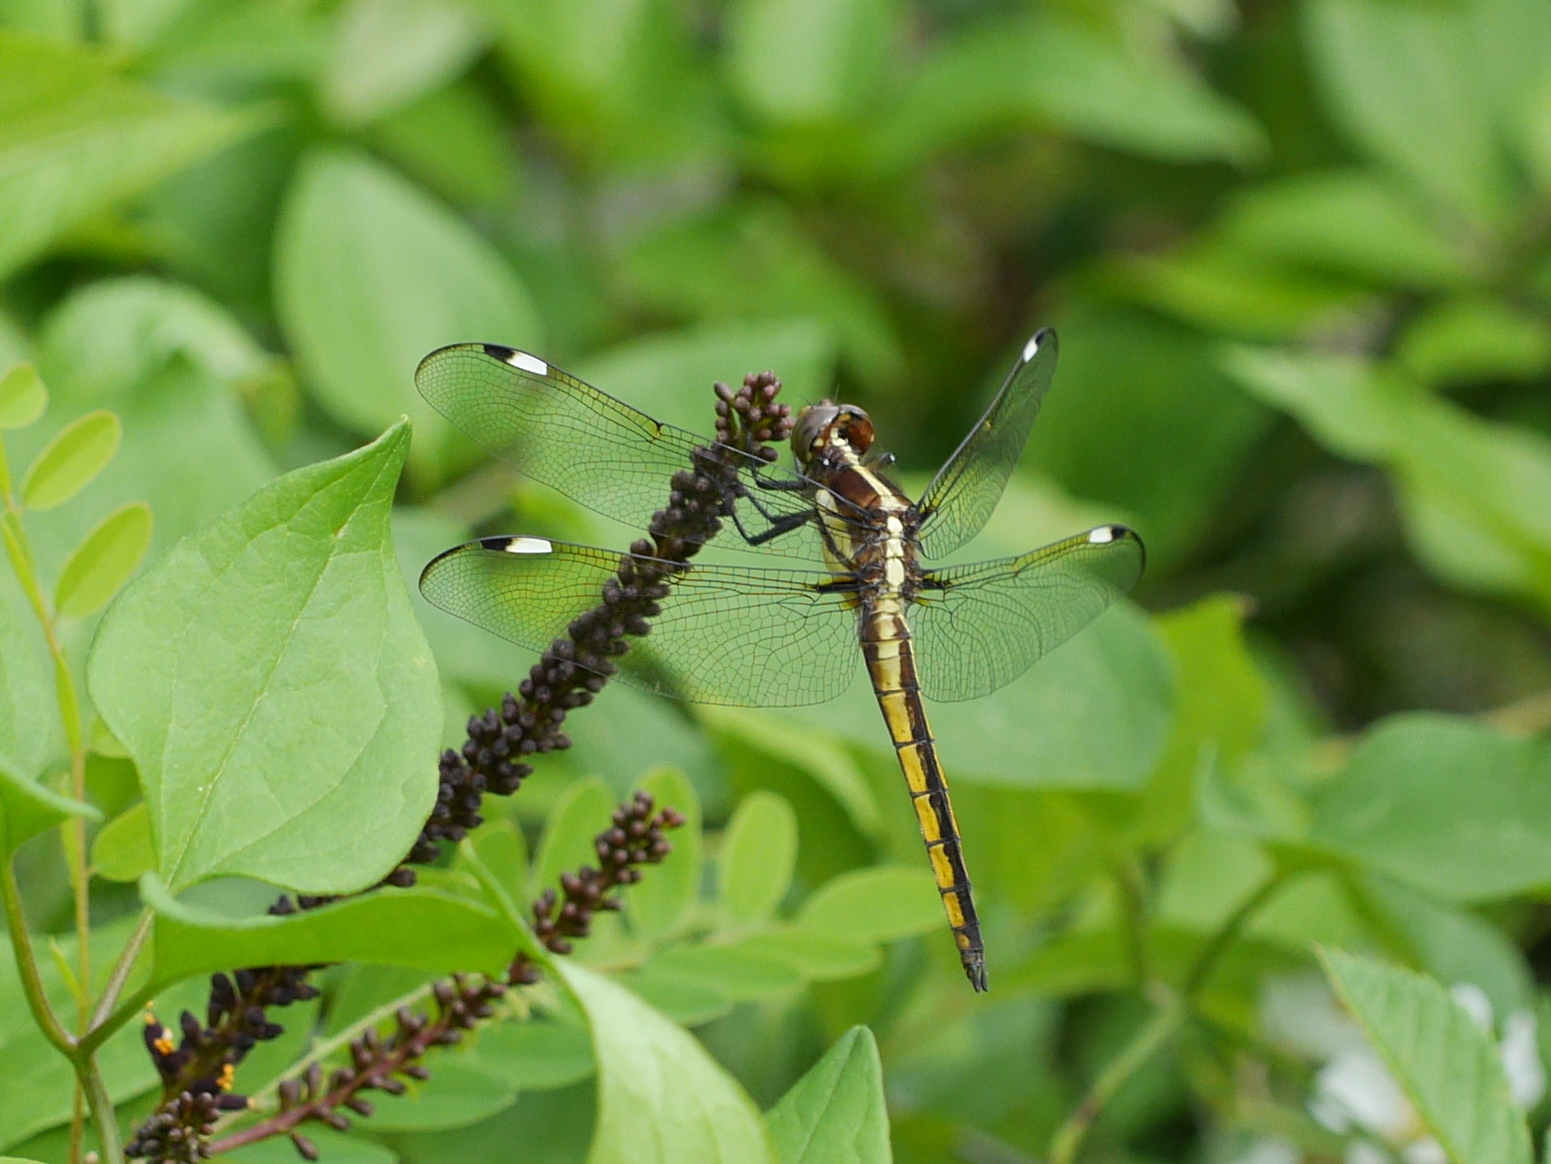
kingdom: Animalia
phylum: Arthropoda
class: Insecta
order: Odonata
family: Libellulidae
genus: Libellula
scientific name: Libellula cyanea
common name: Spangled skimmer
